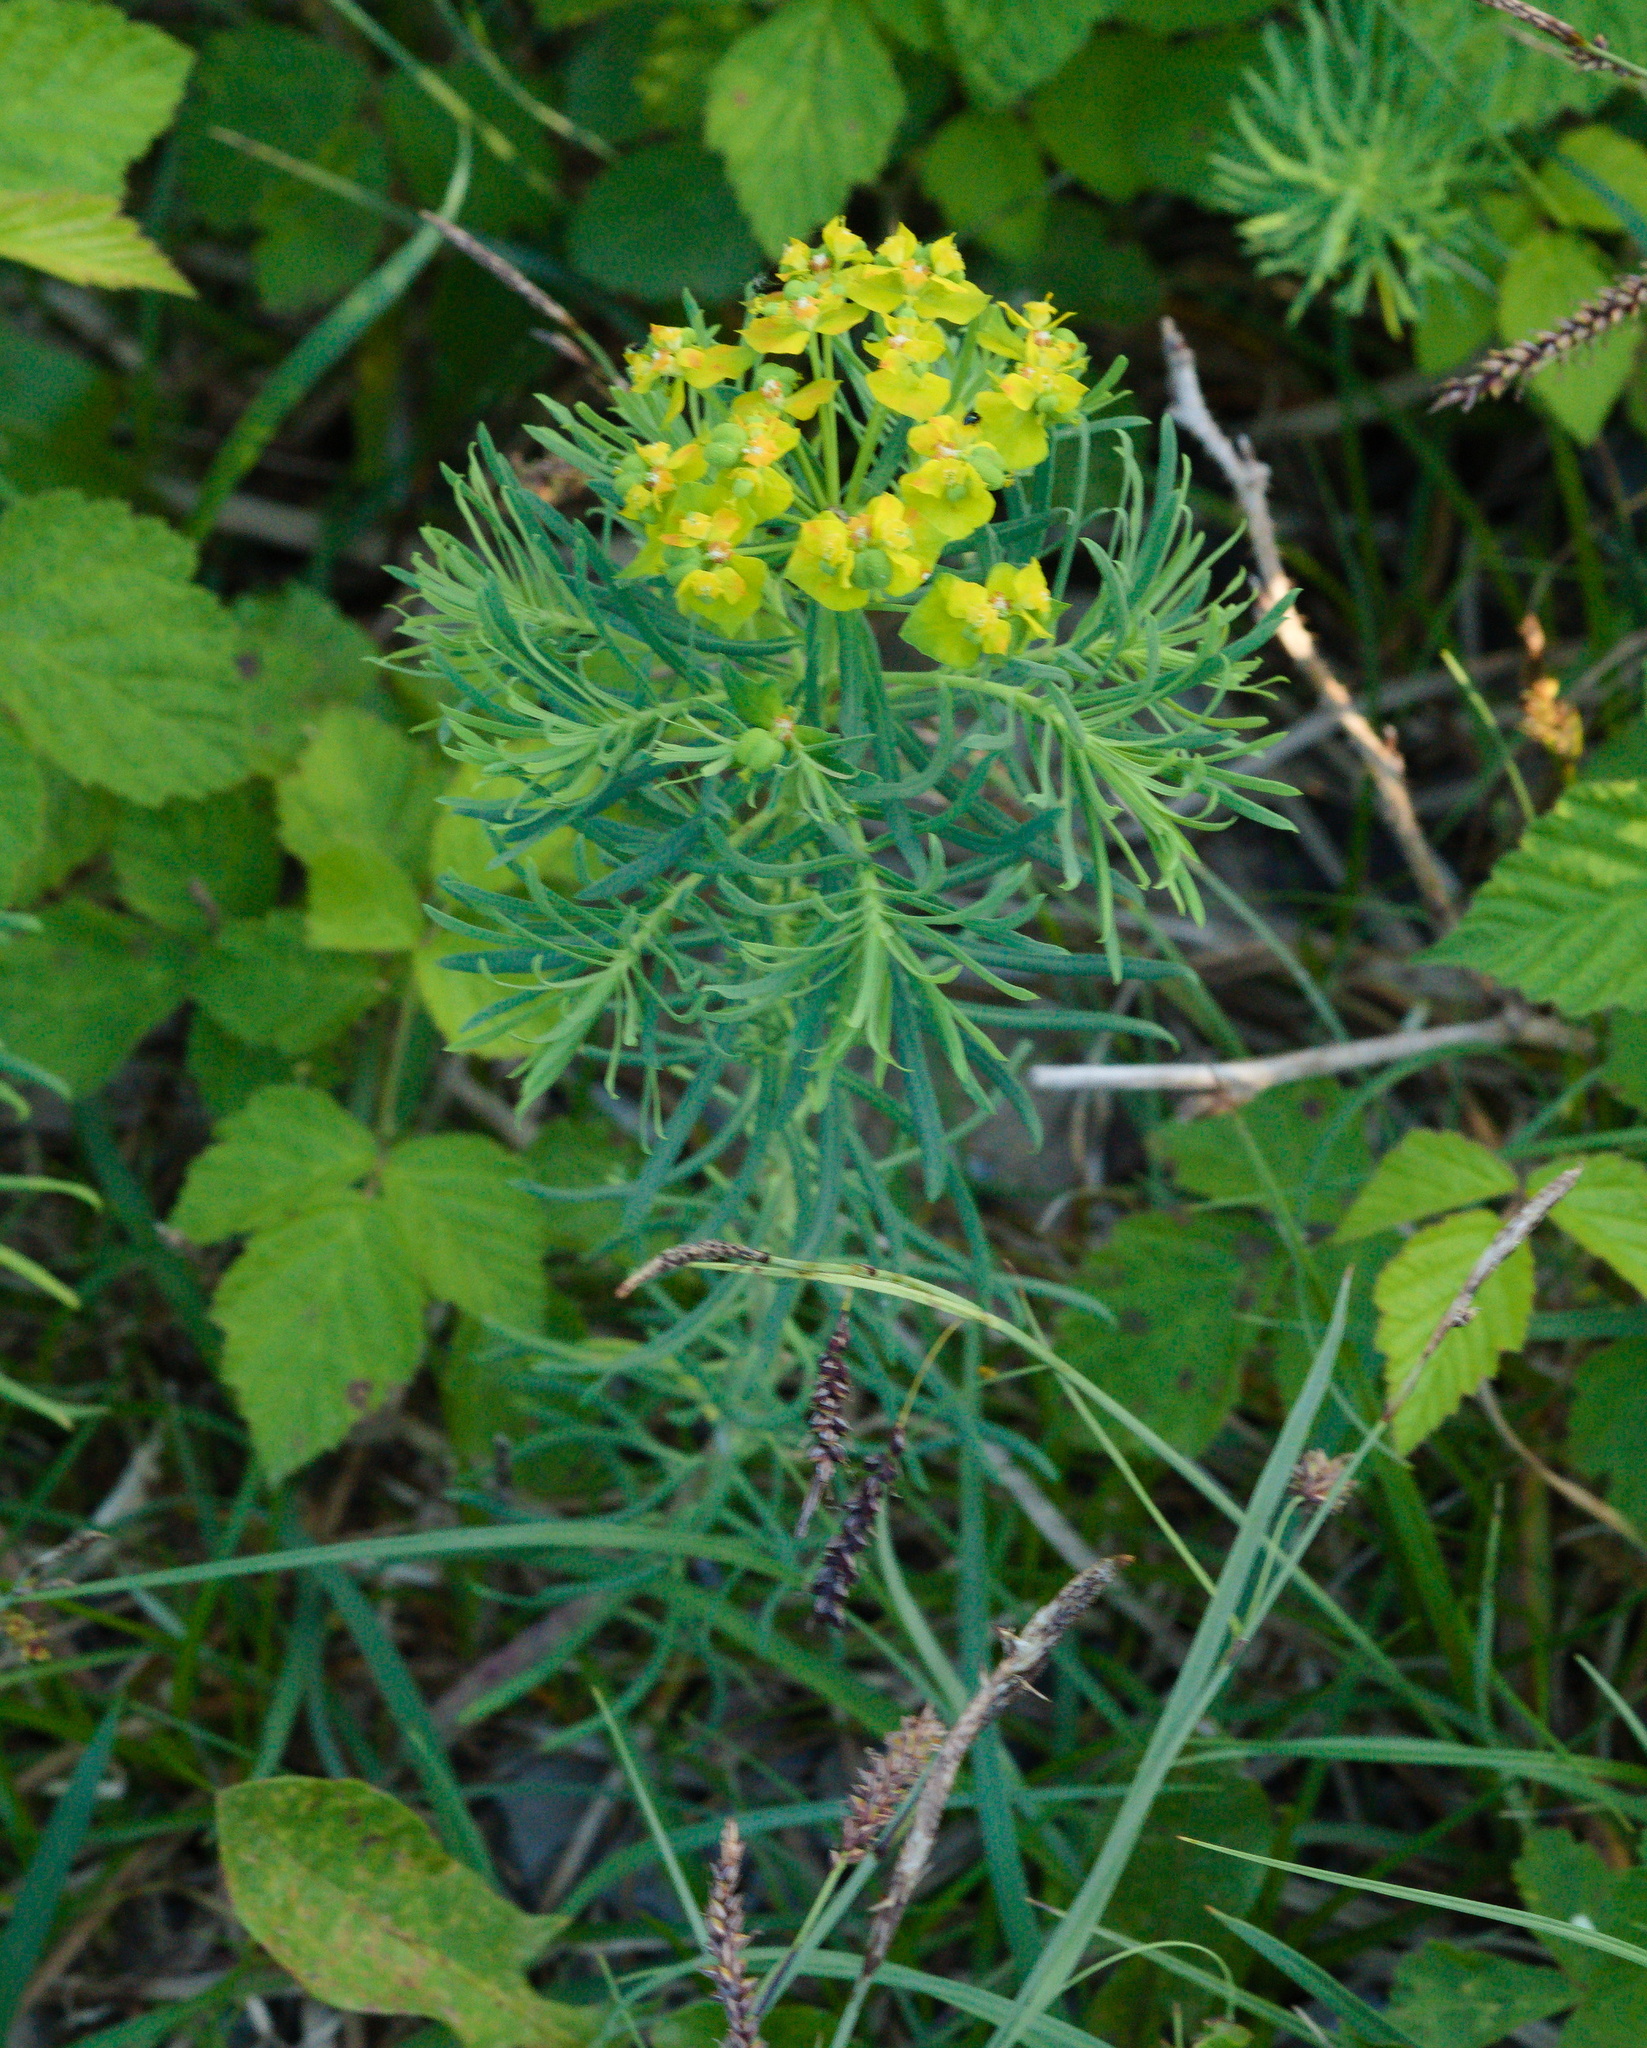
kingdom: Plantae
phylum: Tracheophyta
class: Magnoliopsida
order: Malpighiales
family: Euphorbiaceae
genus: Euphorbia
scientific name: Euphorbia cyparissias
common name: Cypress spurge
